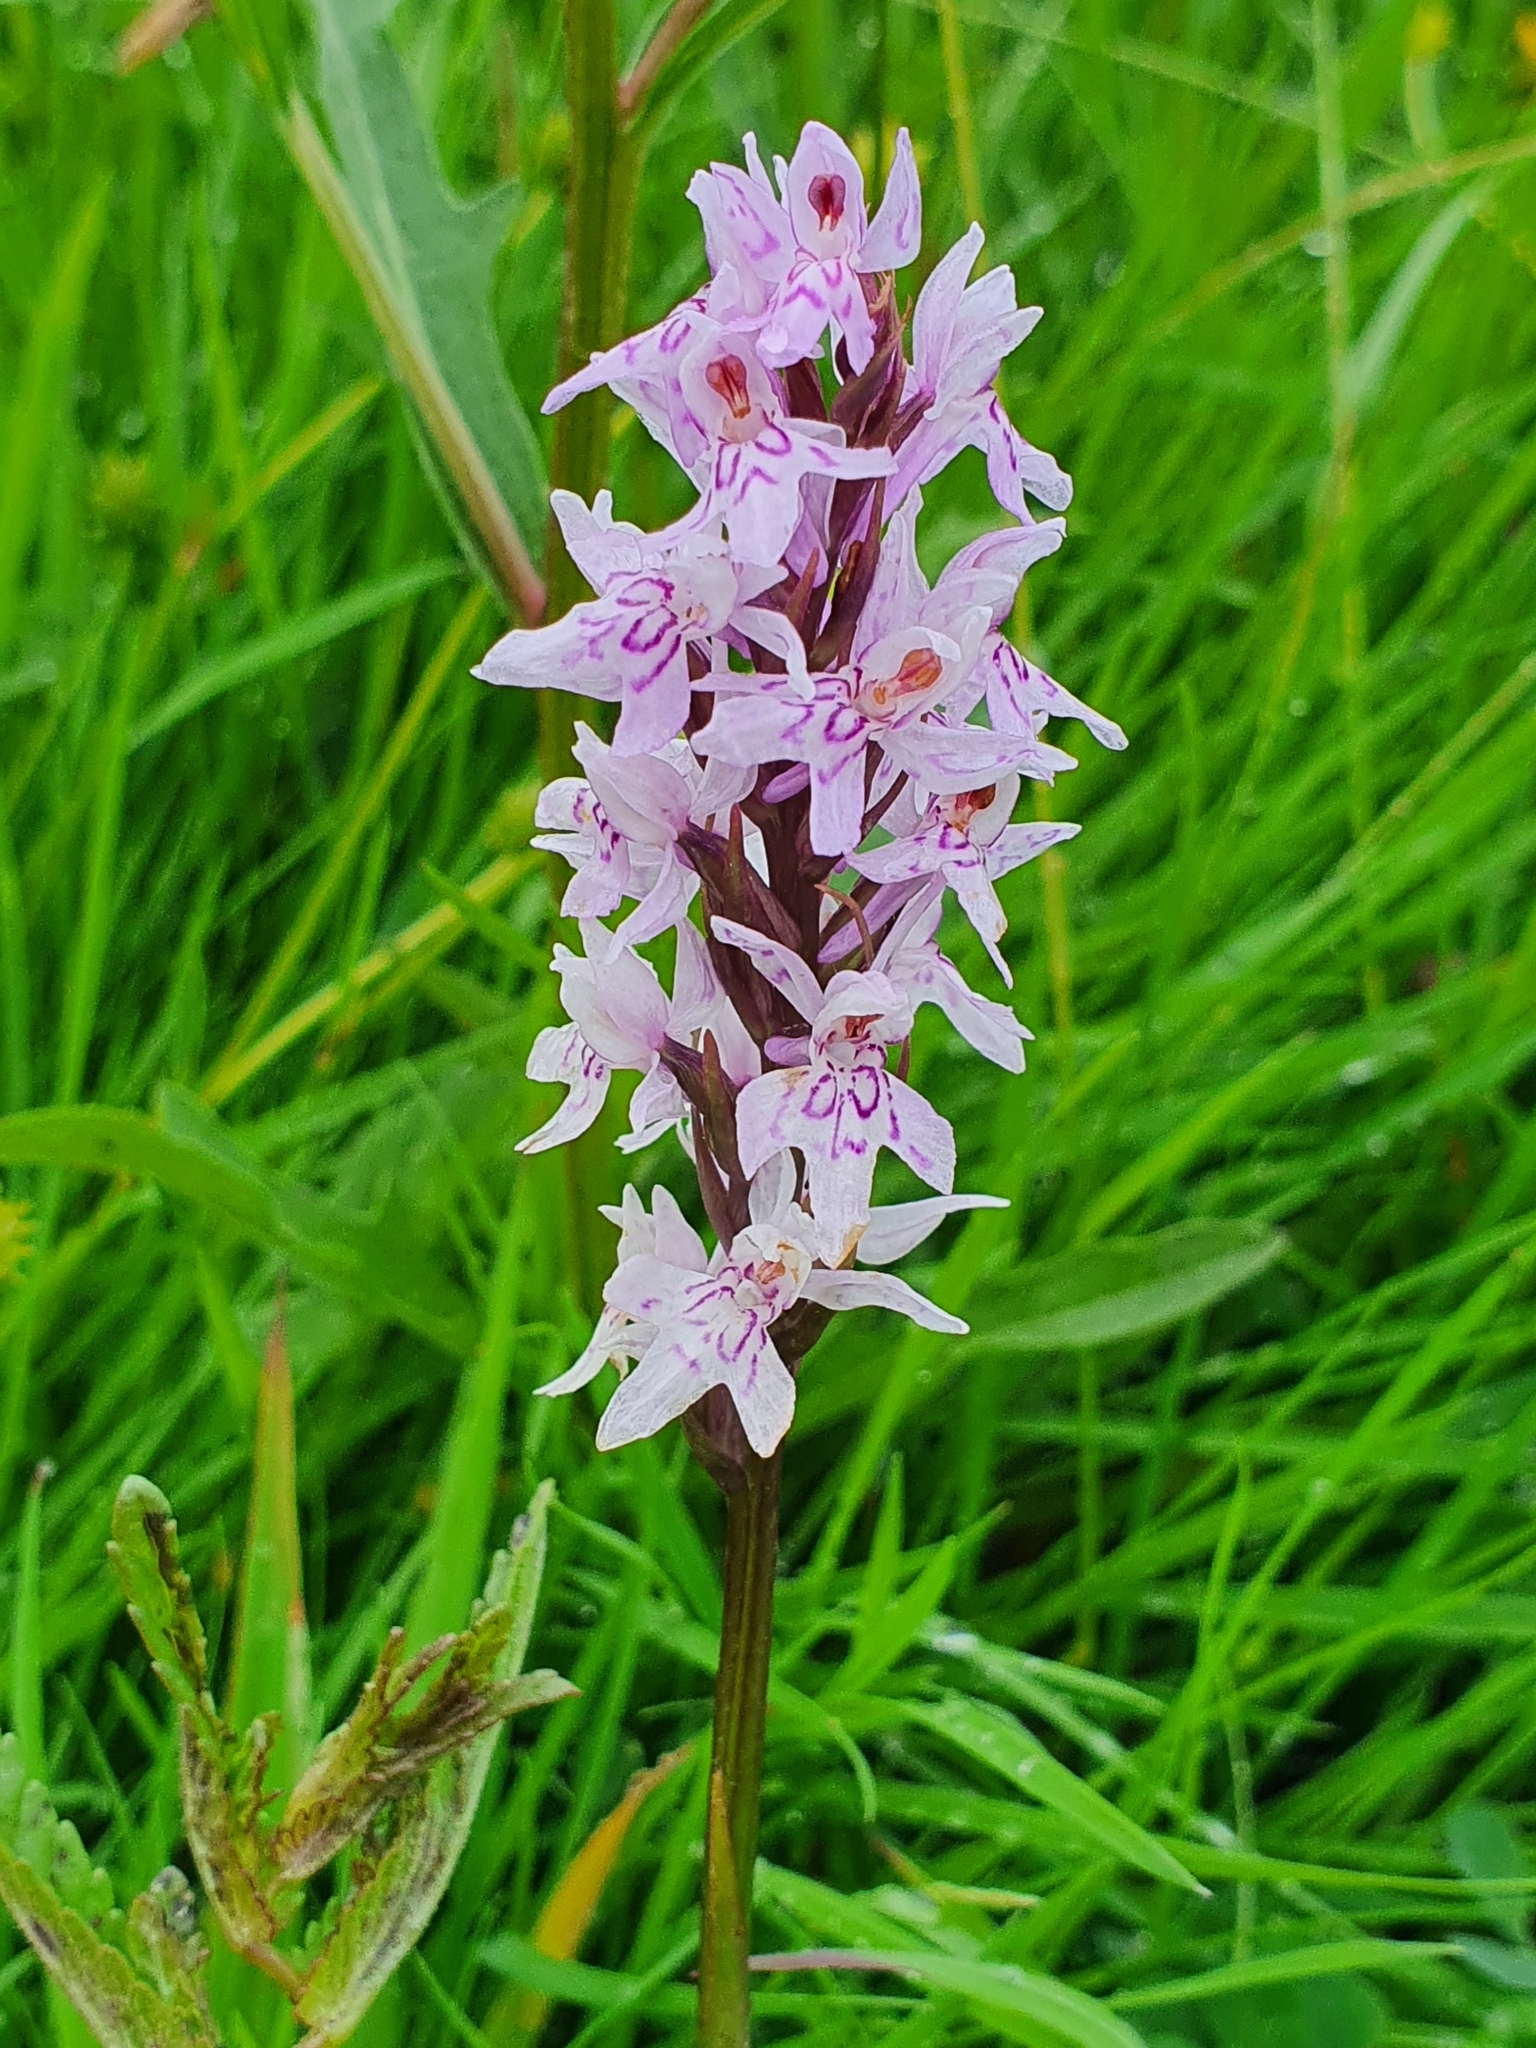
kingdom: Plantae
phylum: Tracheophyta
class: Liliopsida
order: Asparagales
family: Orchidaceae
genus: Dactylorhiza
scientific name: Dactylorhiza maculata
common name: Heath spotted-orchid
